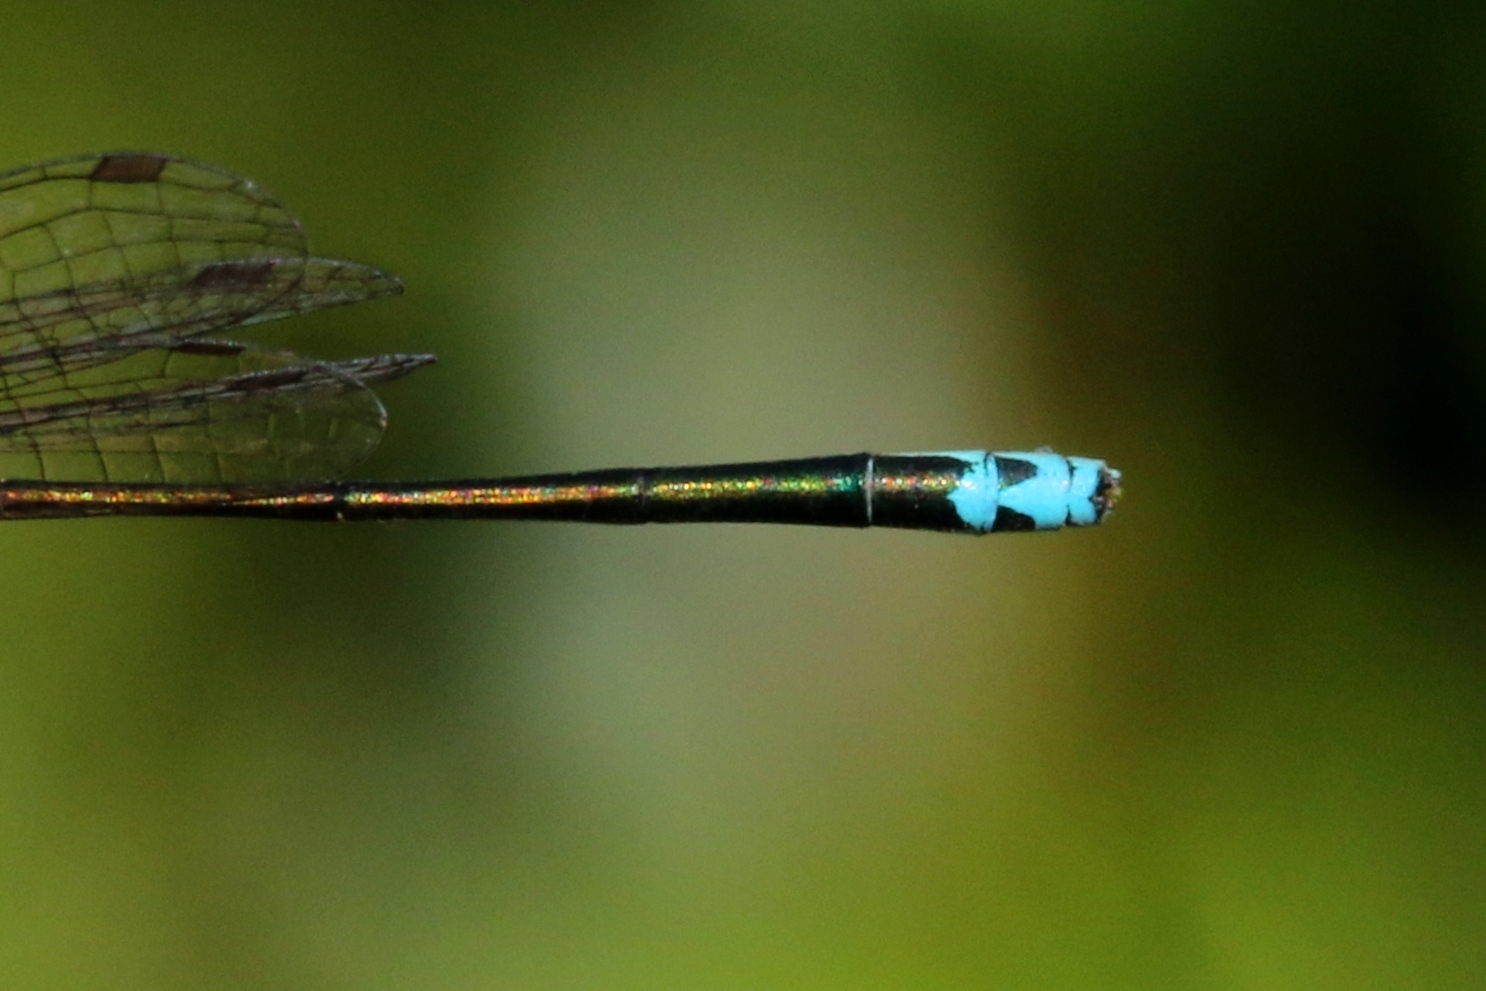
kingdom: Animalia
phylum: Arthropoda
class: Insecta
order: Odonata
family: Coenagrionidae
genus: Nehalennia
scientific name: Nehalennia irene
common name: Sedge sprite
